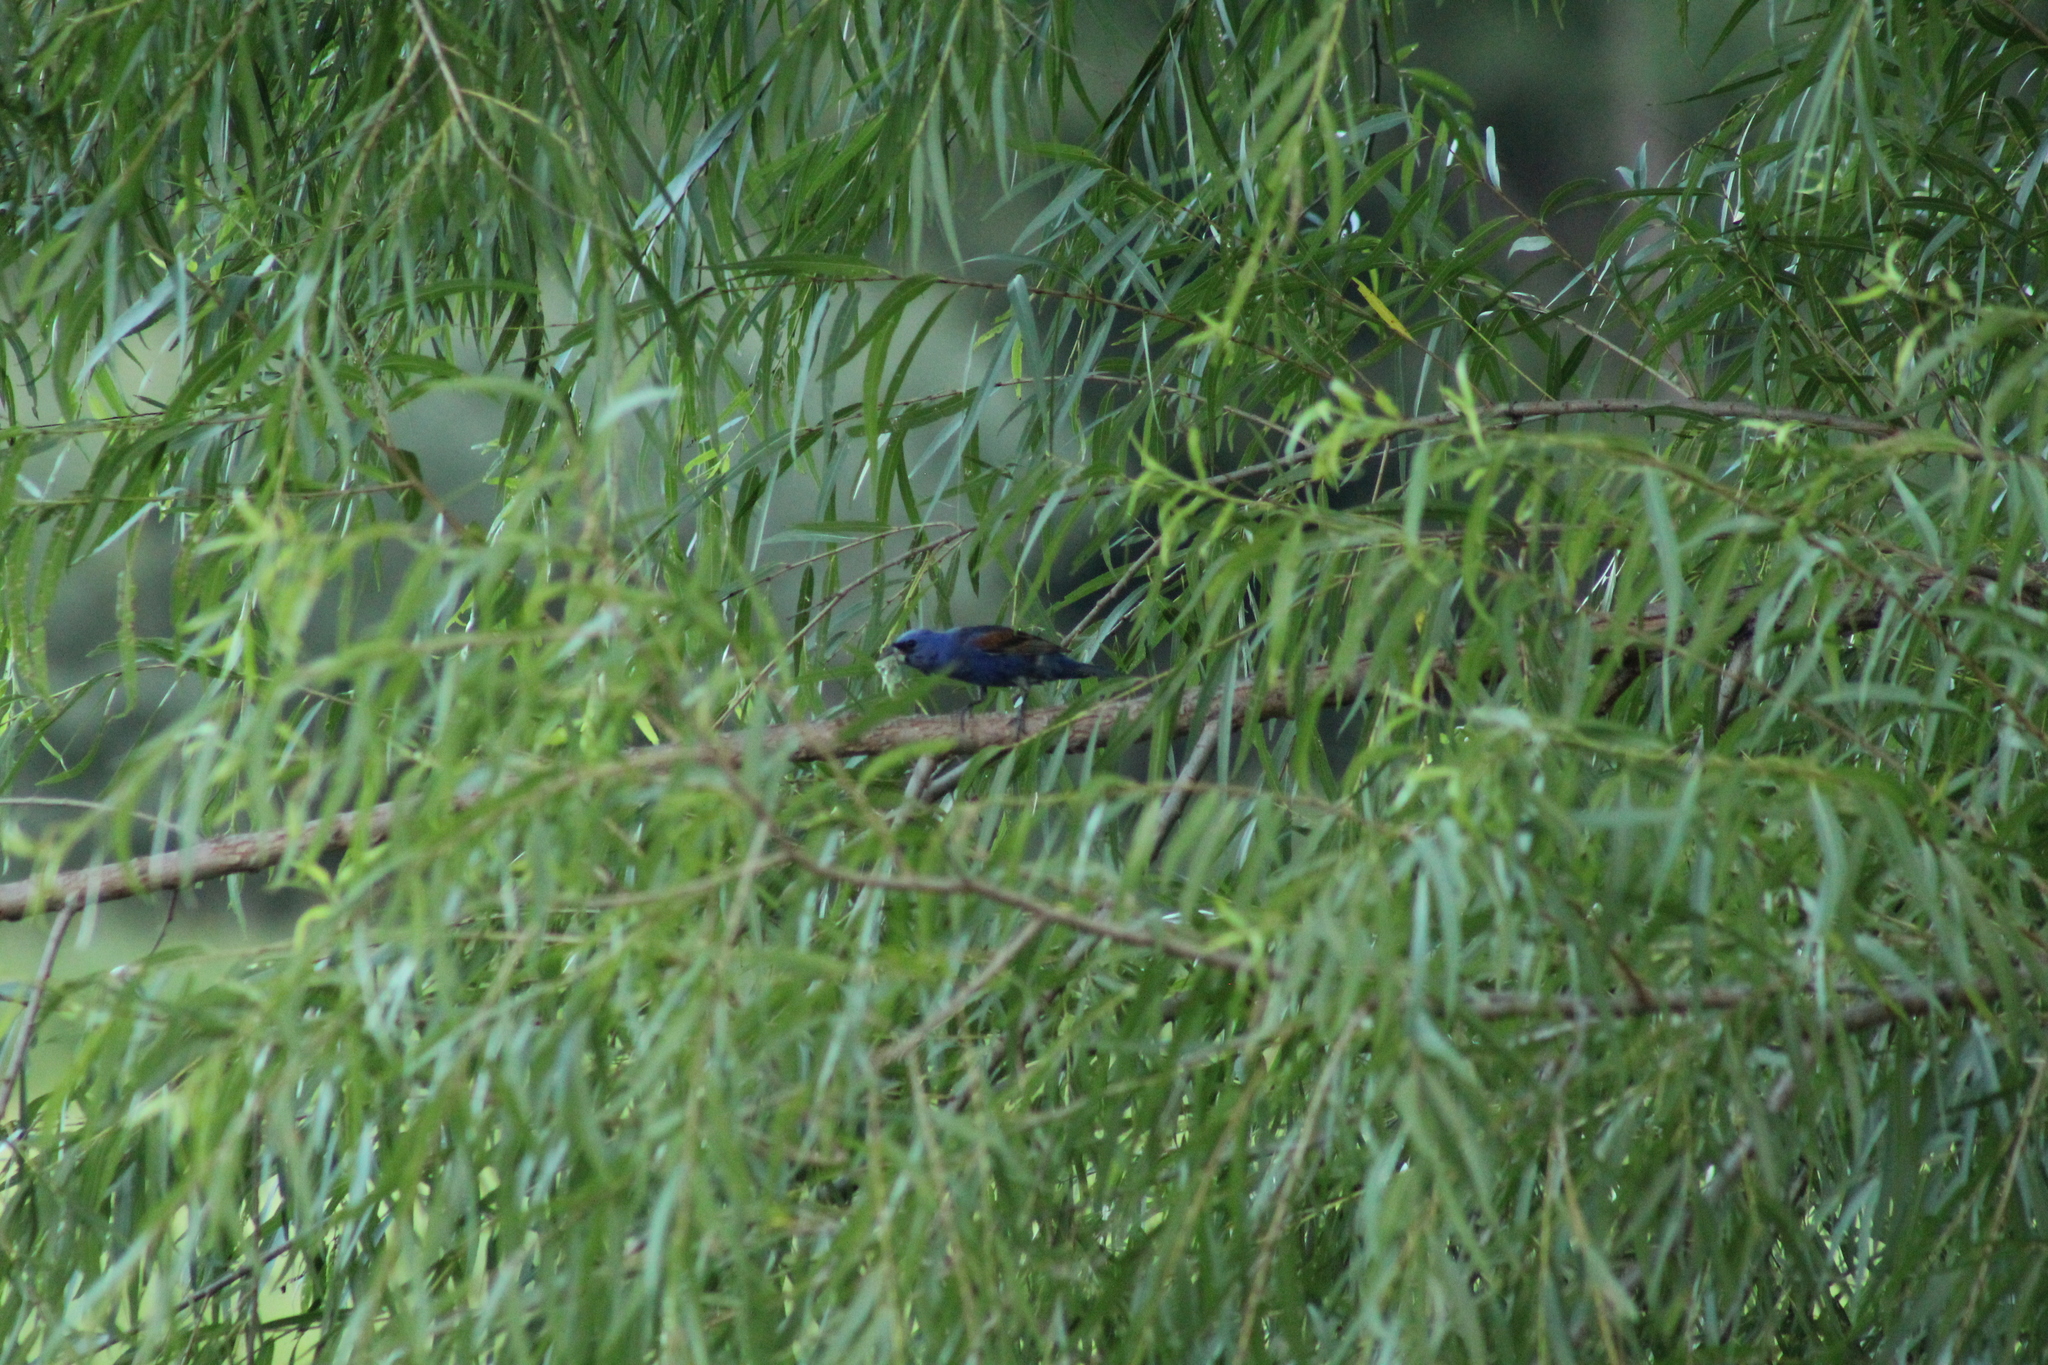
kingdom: Animalia
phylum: Chordata
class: Aves
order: Passeriformes
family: Cardinalidae
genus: Passerina
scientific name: Passerina caerulea
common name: Blue grosbeak
